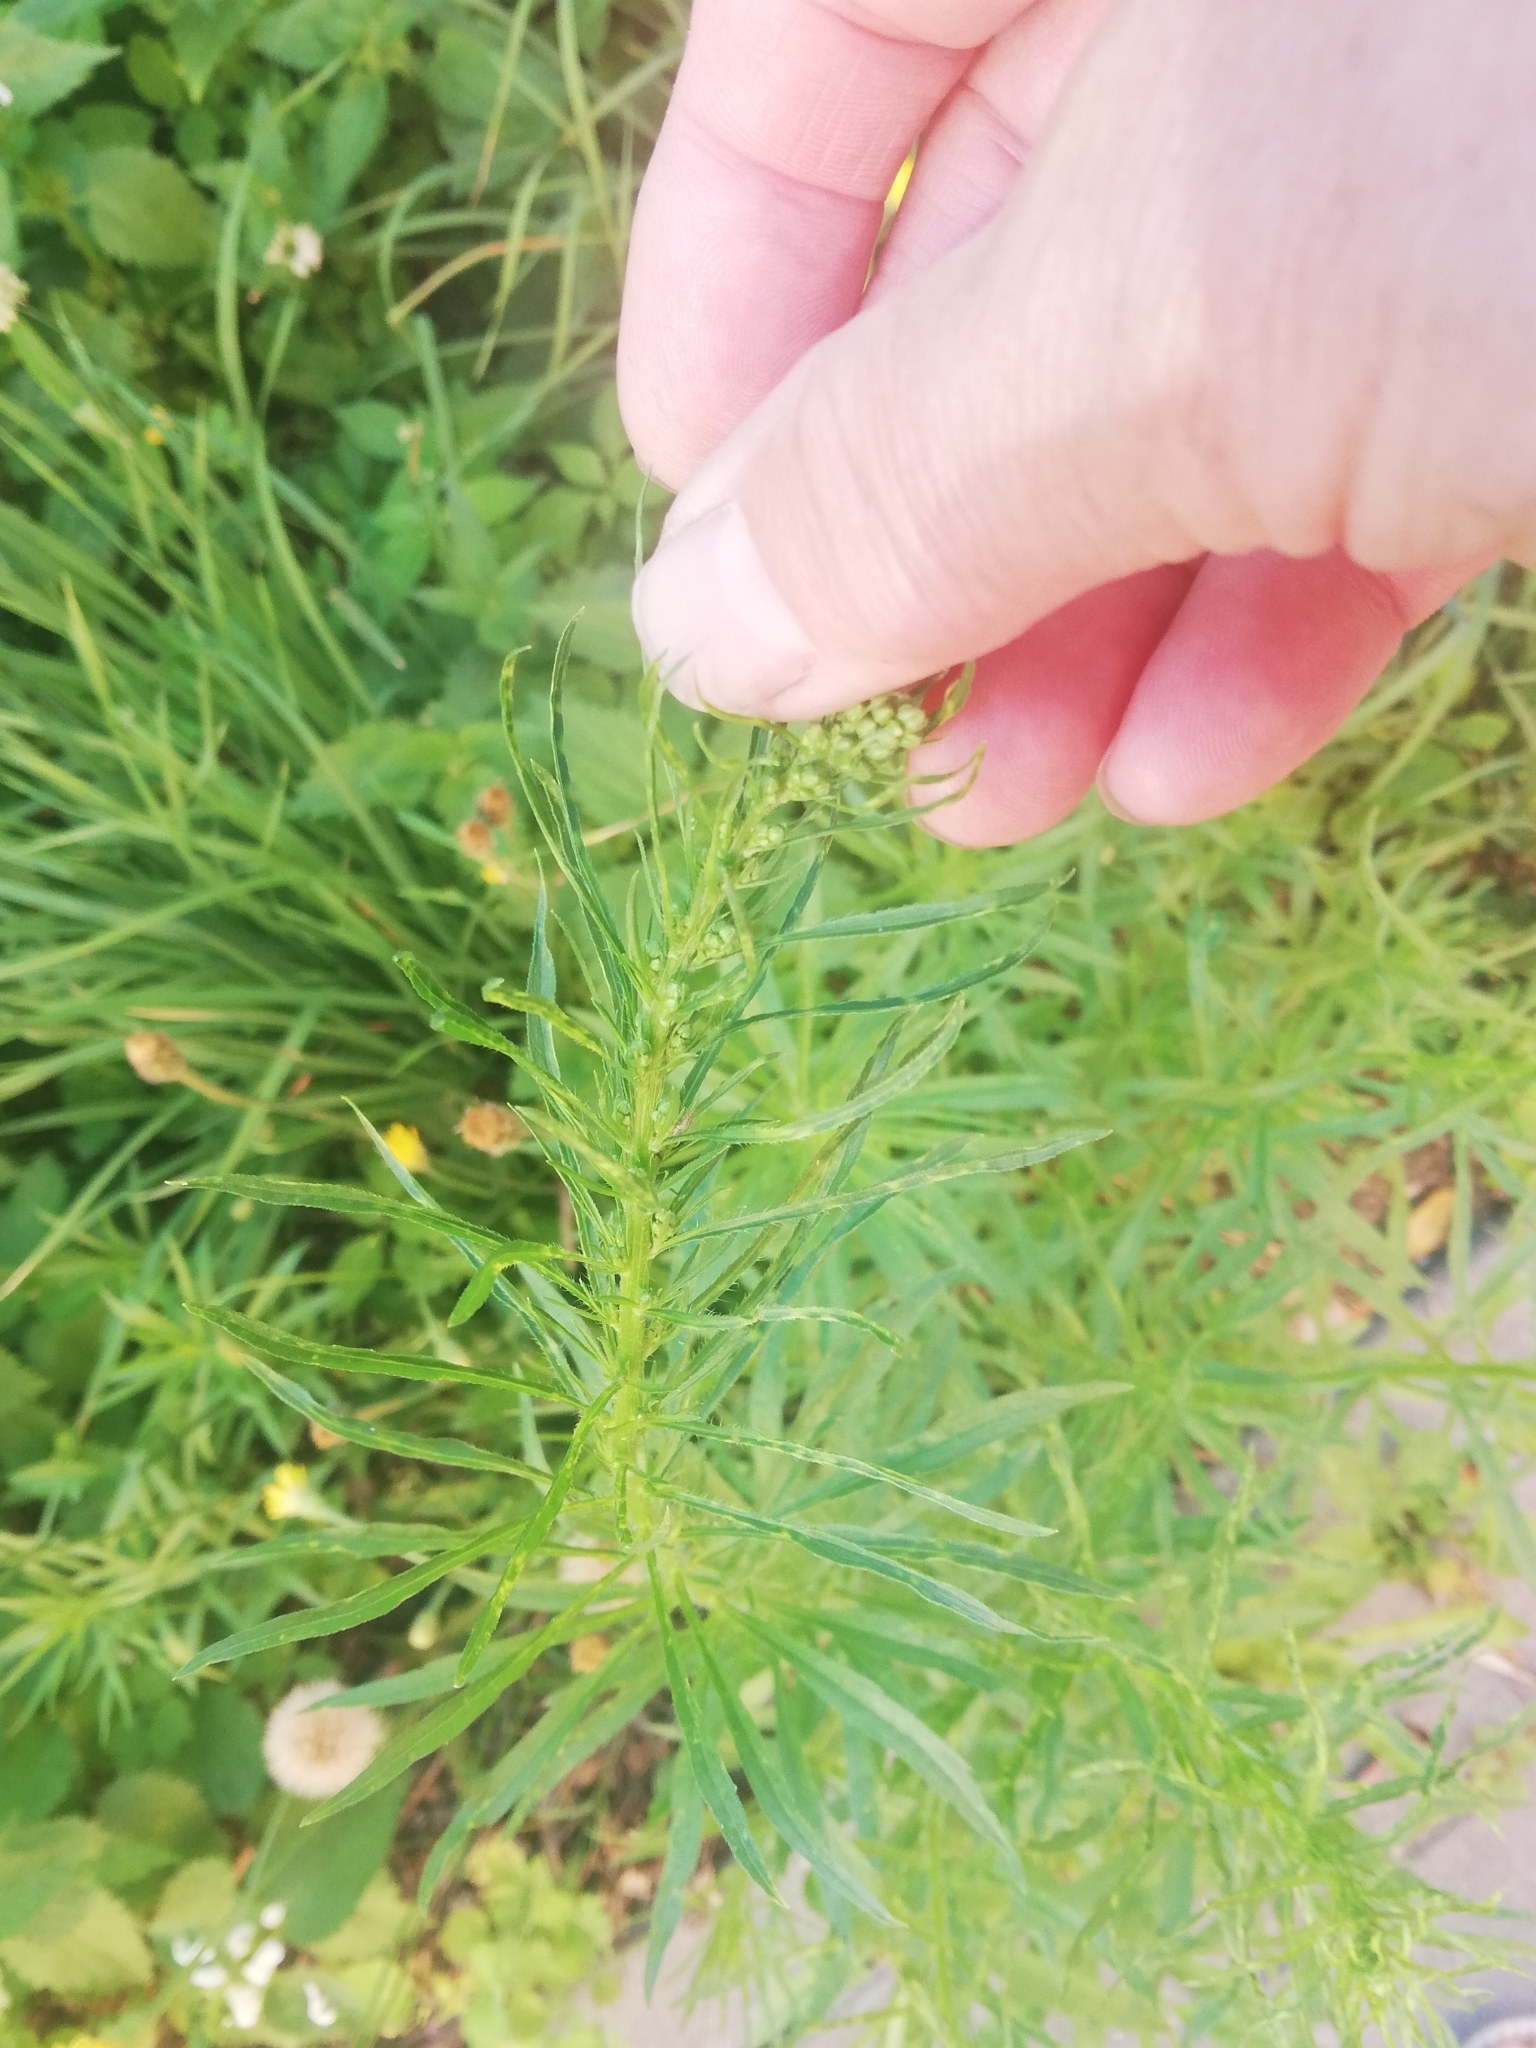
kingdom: Plantae
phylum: Tracheophyta
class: Magnoliopsida
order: Asterales
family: Asteraceae
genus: Erigeron
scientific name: Erigeron canadensis
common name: Canadian fleabane
